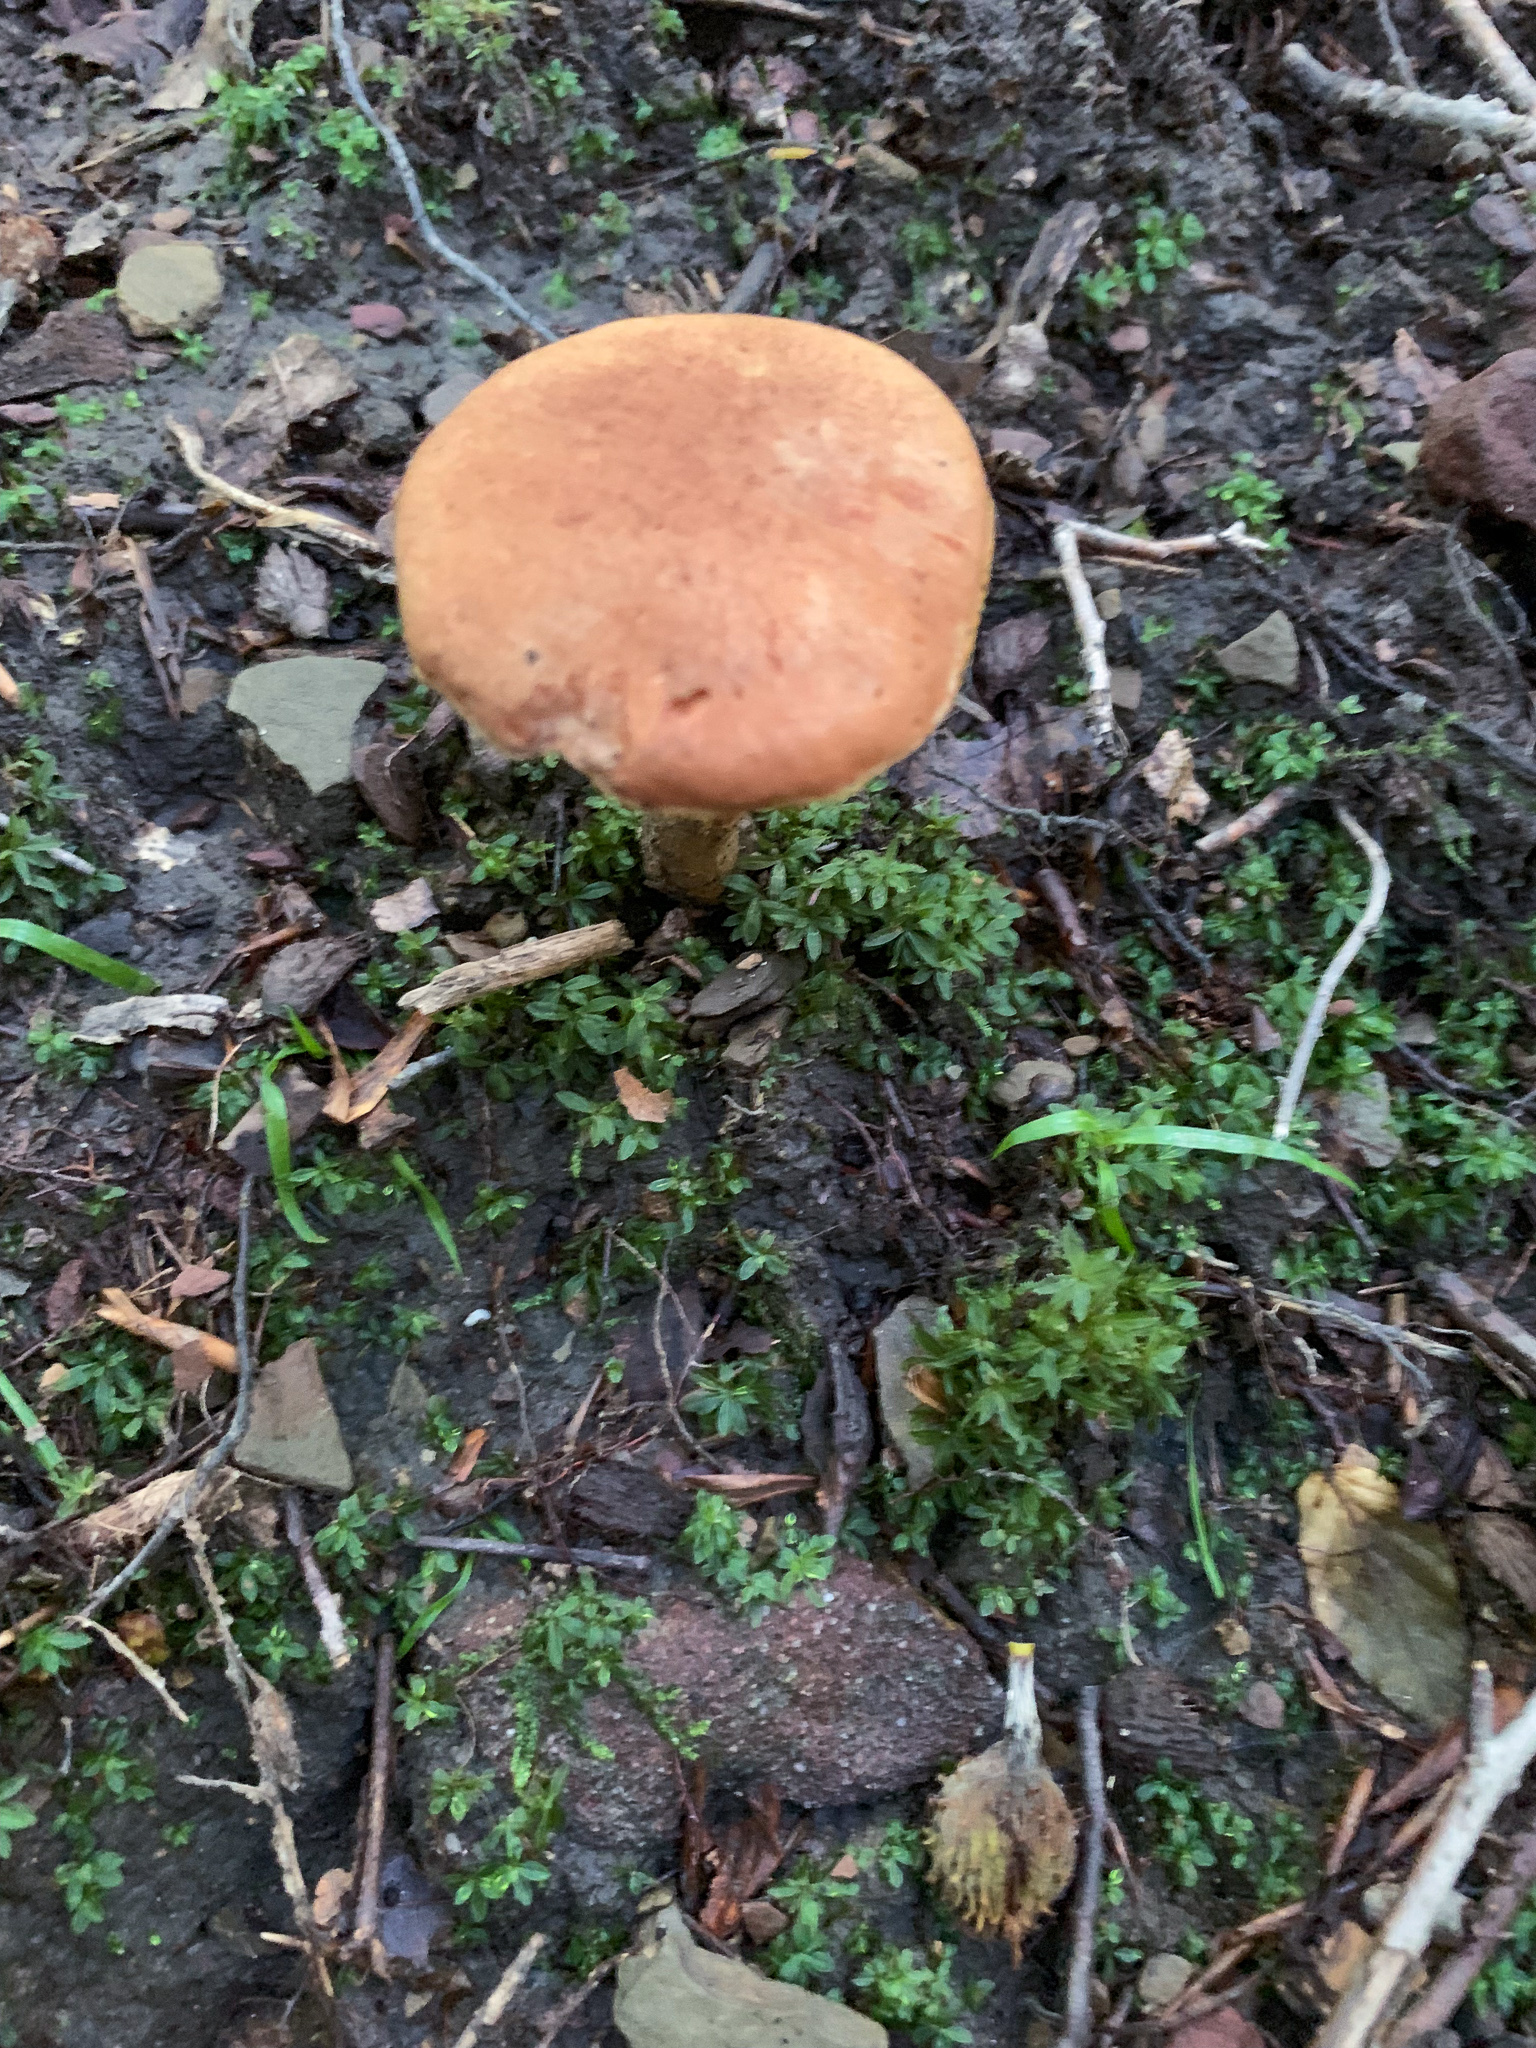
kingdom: Fungi
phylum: Basidiomycota
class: Agaricomycetes
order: Boletales
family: Boletaceae
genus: Aureoboletus
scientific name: Aureoboletus innixus
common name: Clustered brown bolete
